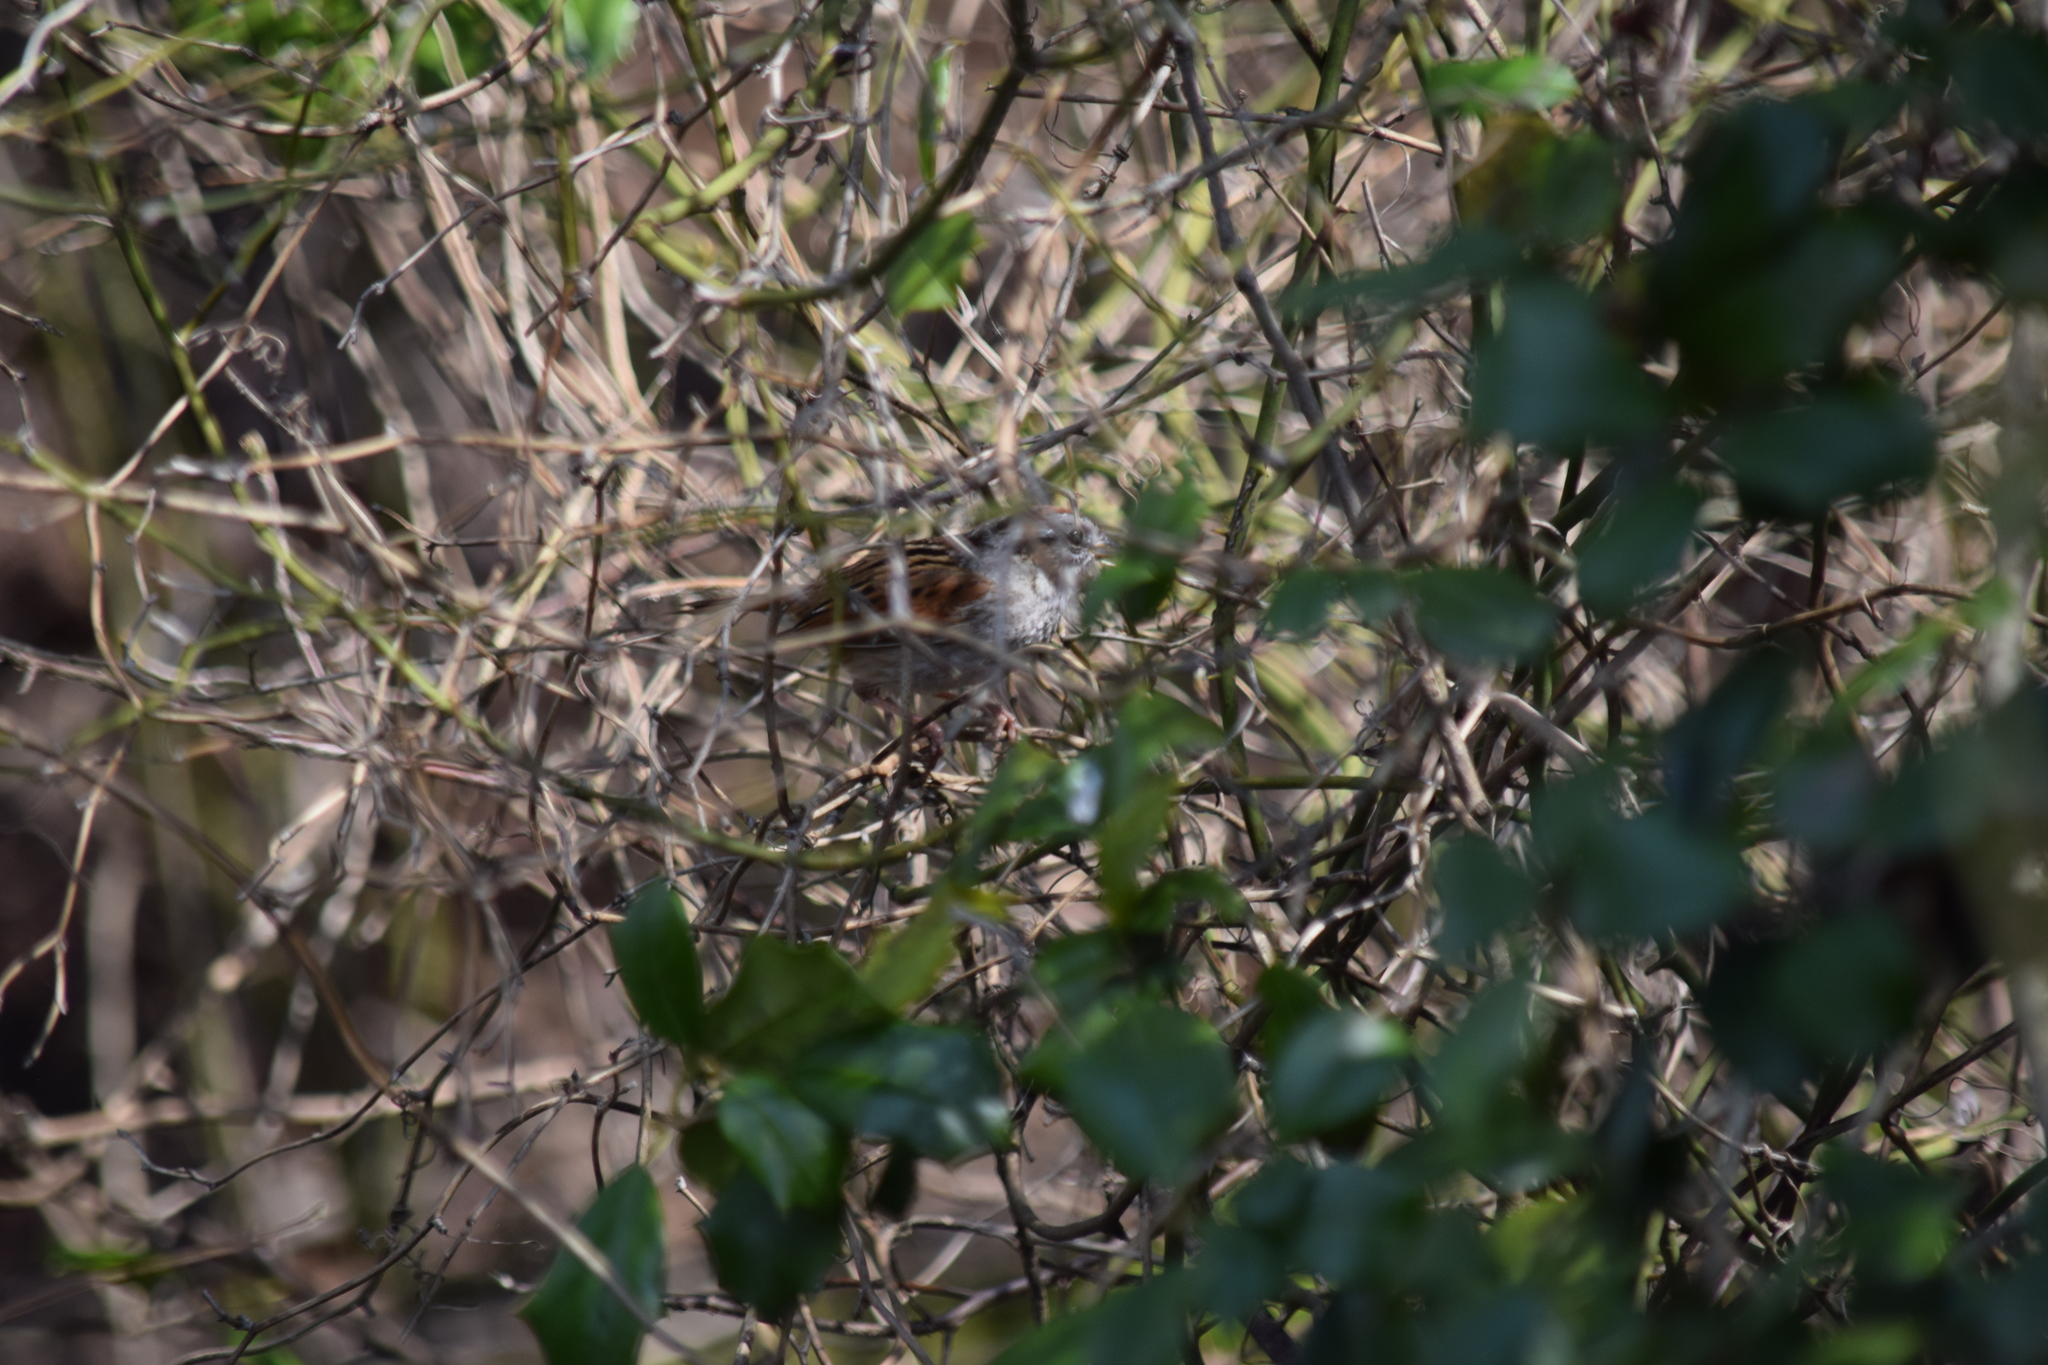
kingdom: Animalia
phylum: Chordata
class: Aves
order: Passeriformes
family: Passerellidae
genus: Melospiza
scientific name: Melospiza georgiana
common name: Swamp sparrow
